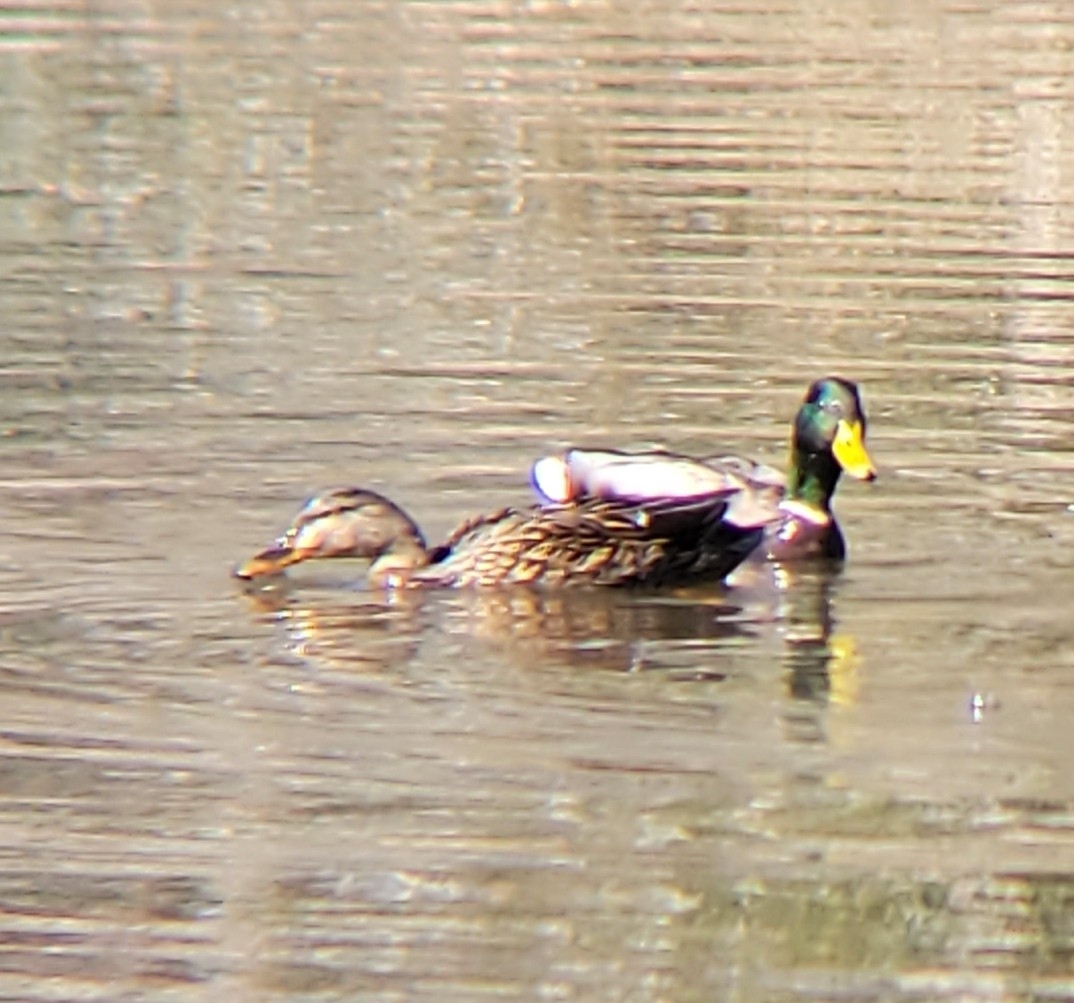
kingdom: Animalia
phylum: Chordata
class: Aves
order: Anseriformes
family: Anatidae
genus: Anas
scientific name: Anas platyrhynchos
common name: Mallard
